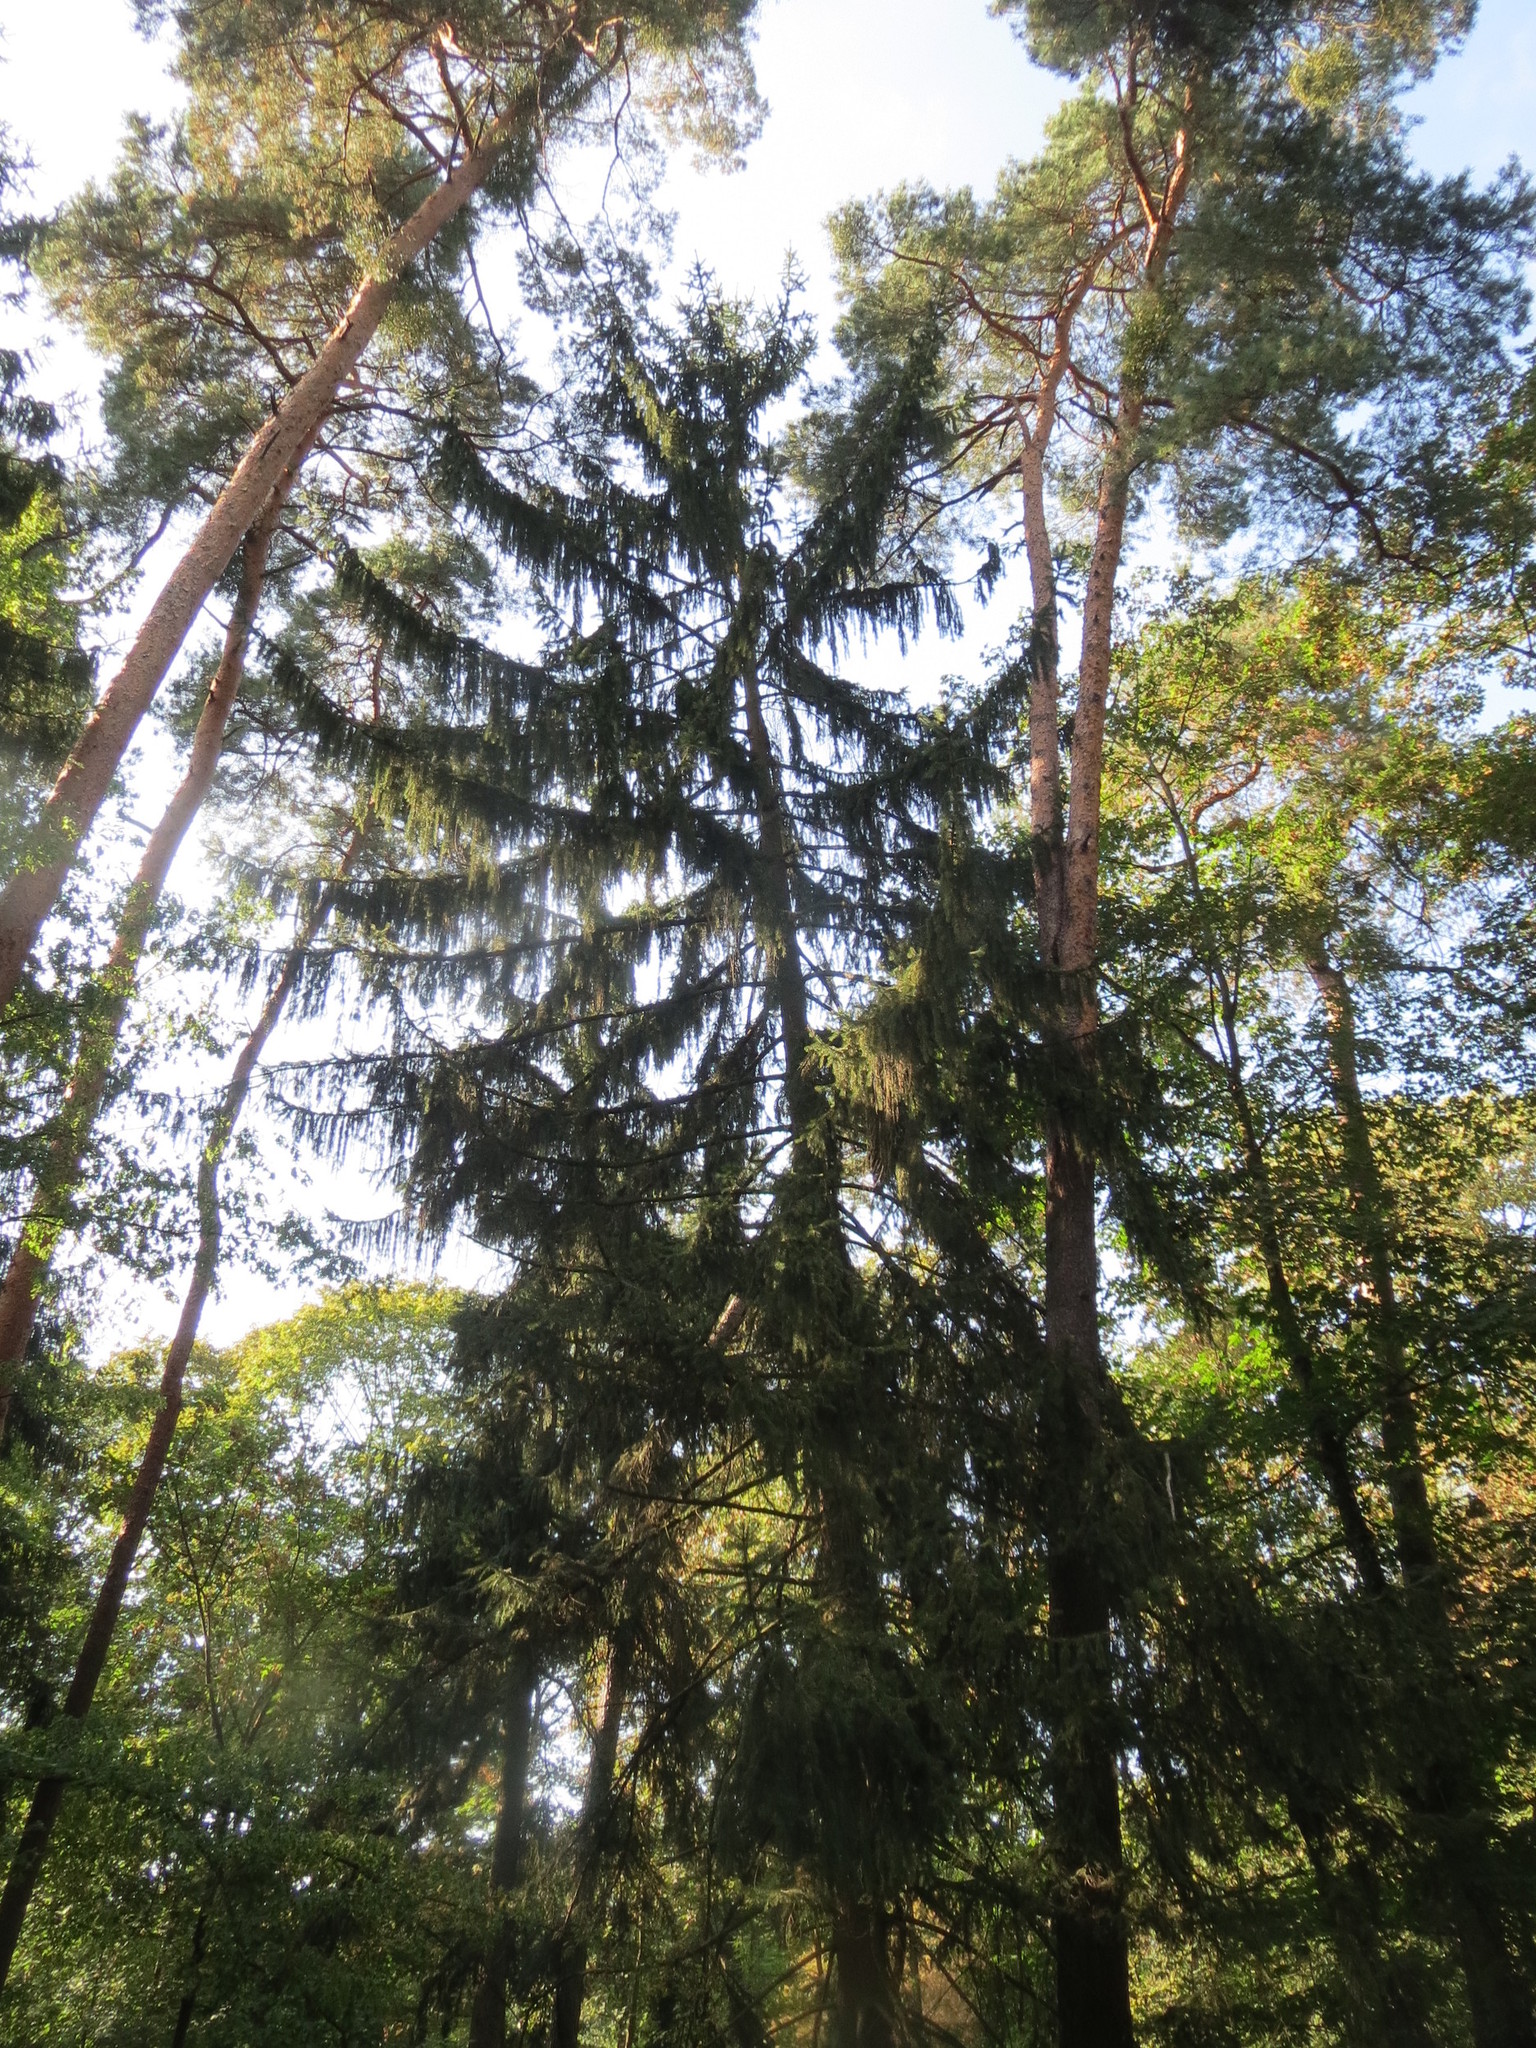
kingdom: Plantae
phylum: Tracheophyta
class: Pinopsida
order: Pinales
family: Pinaceae
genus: Picea
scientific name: Picea abies
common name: Norway spruce
